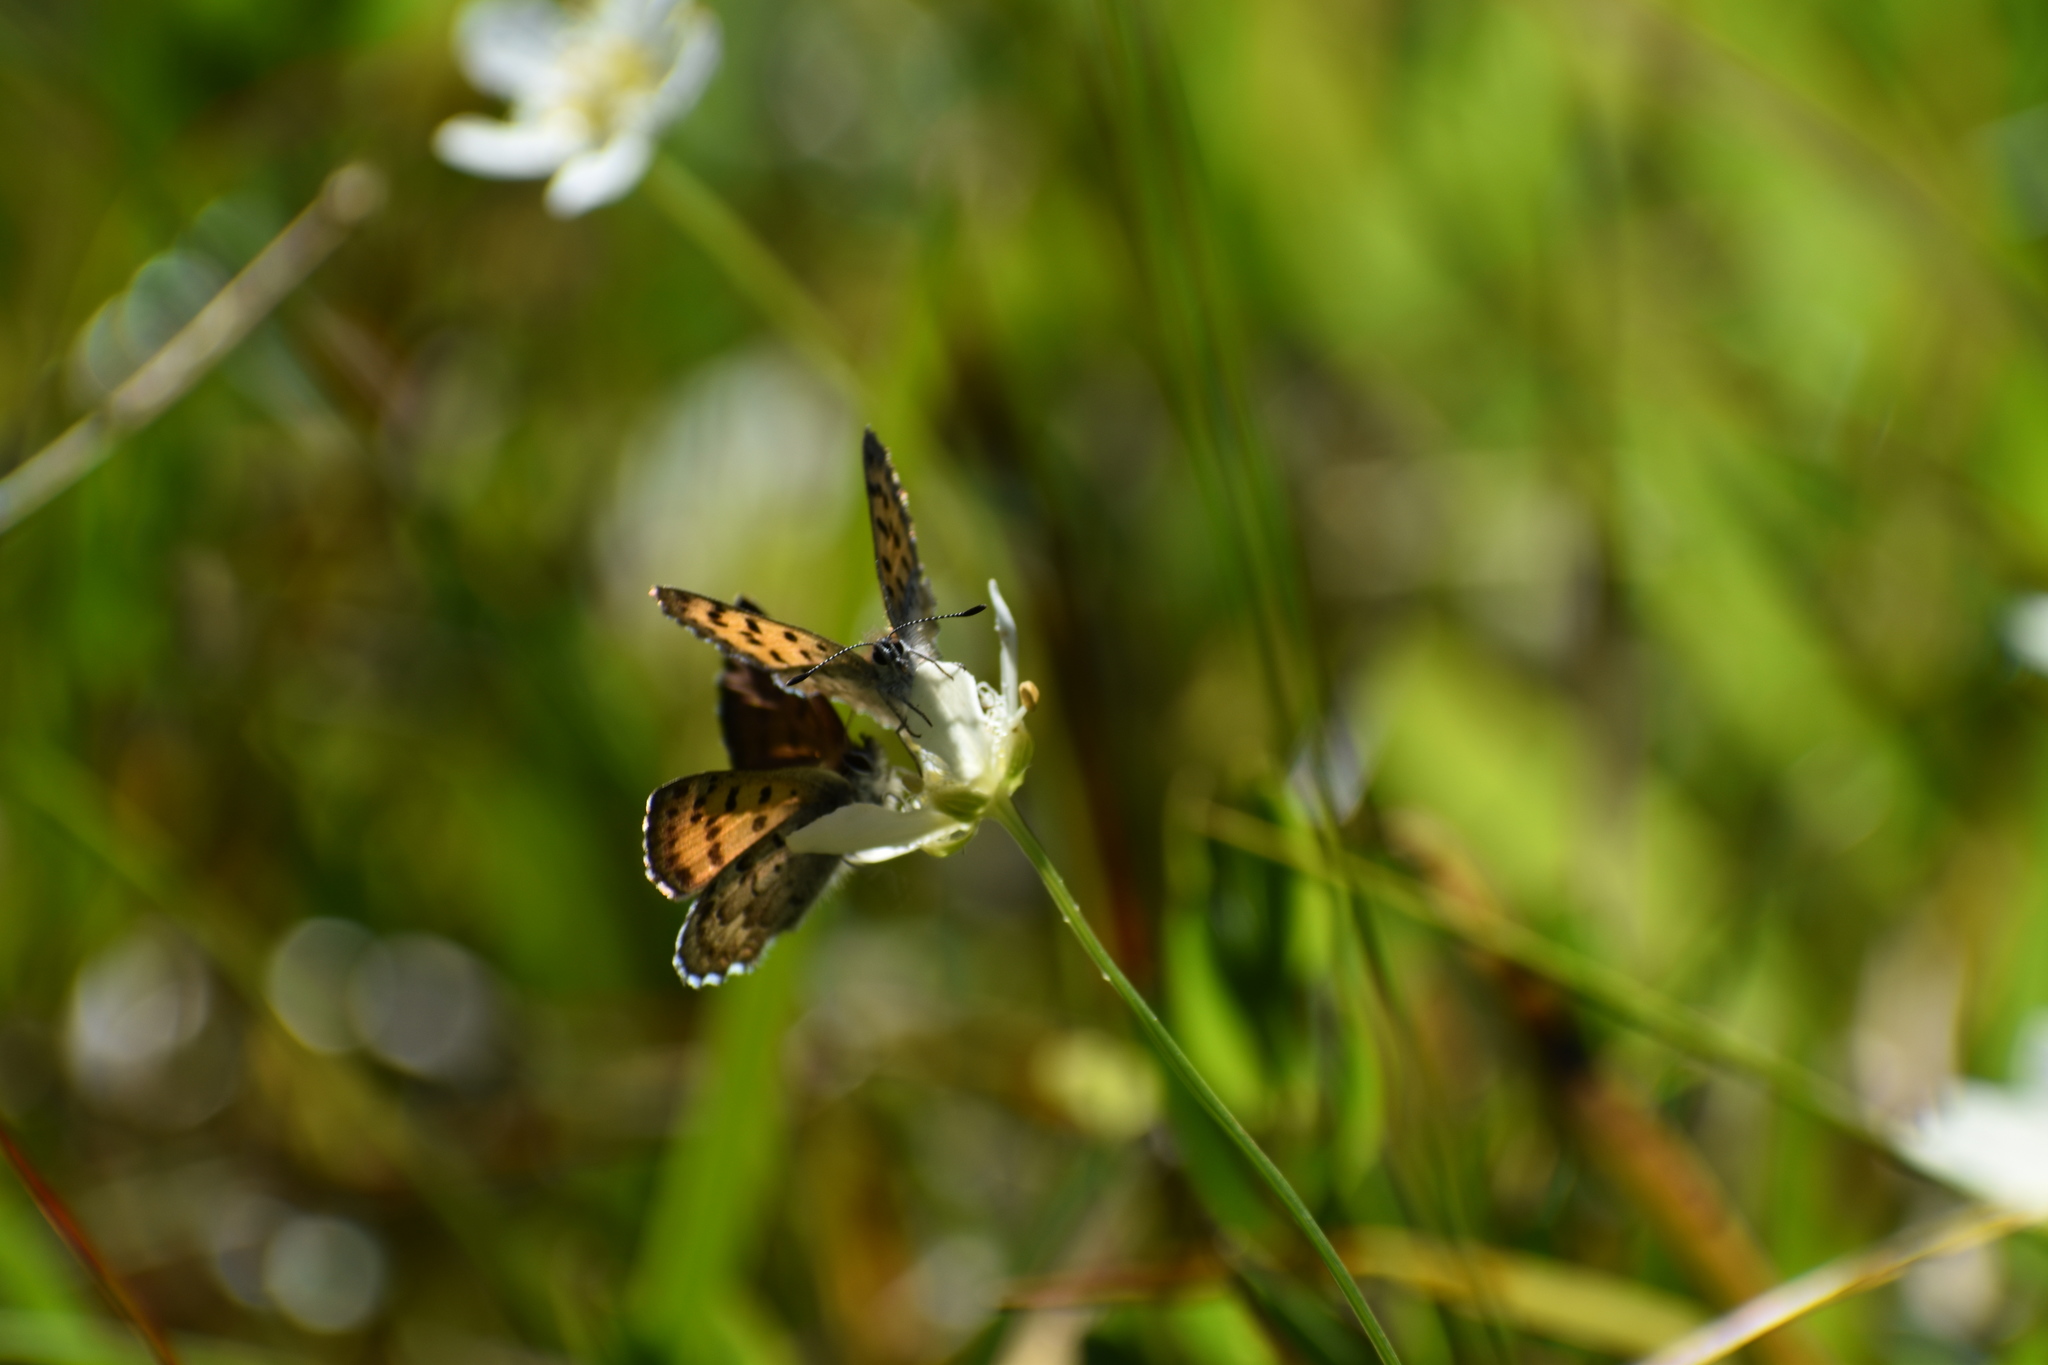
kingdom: Animalia
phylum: Arthropoda
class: Insecta
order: Lepidoptera
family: Lycaenidae
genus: Tharsalea
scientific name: Tharsalea mariposa
